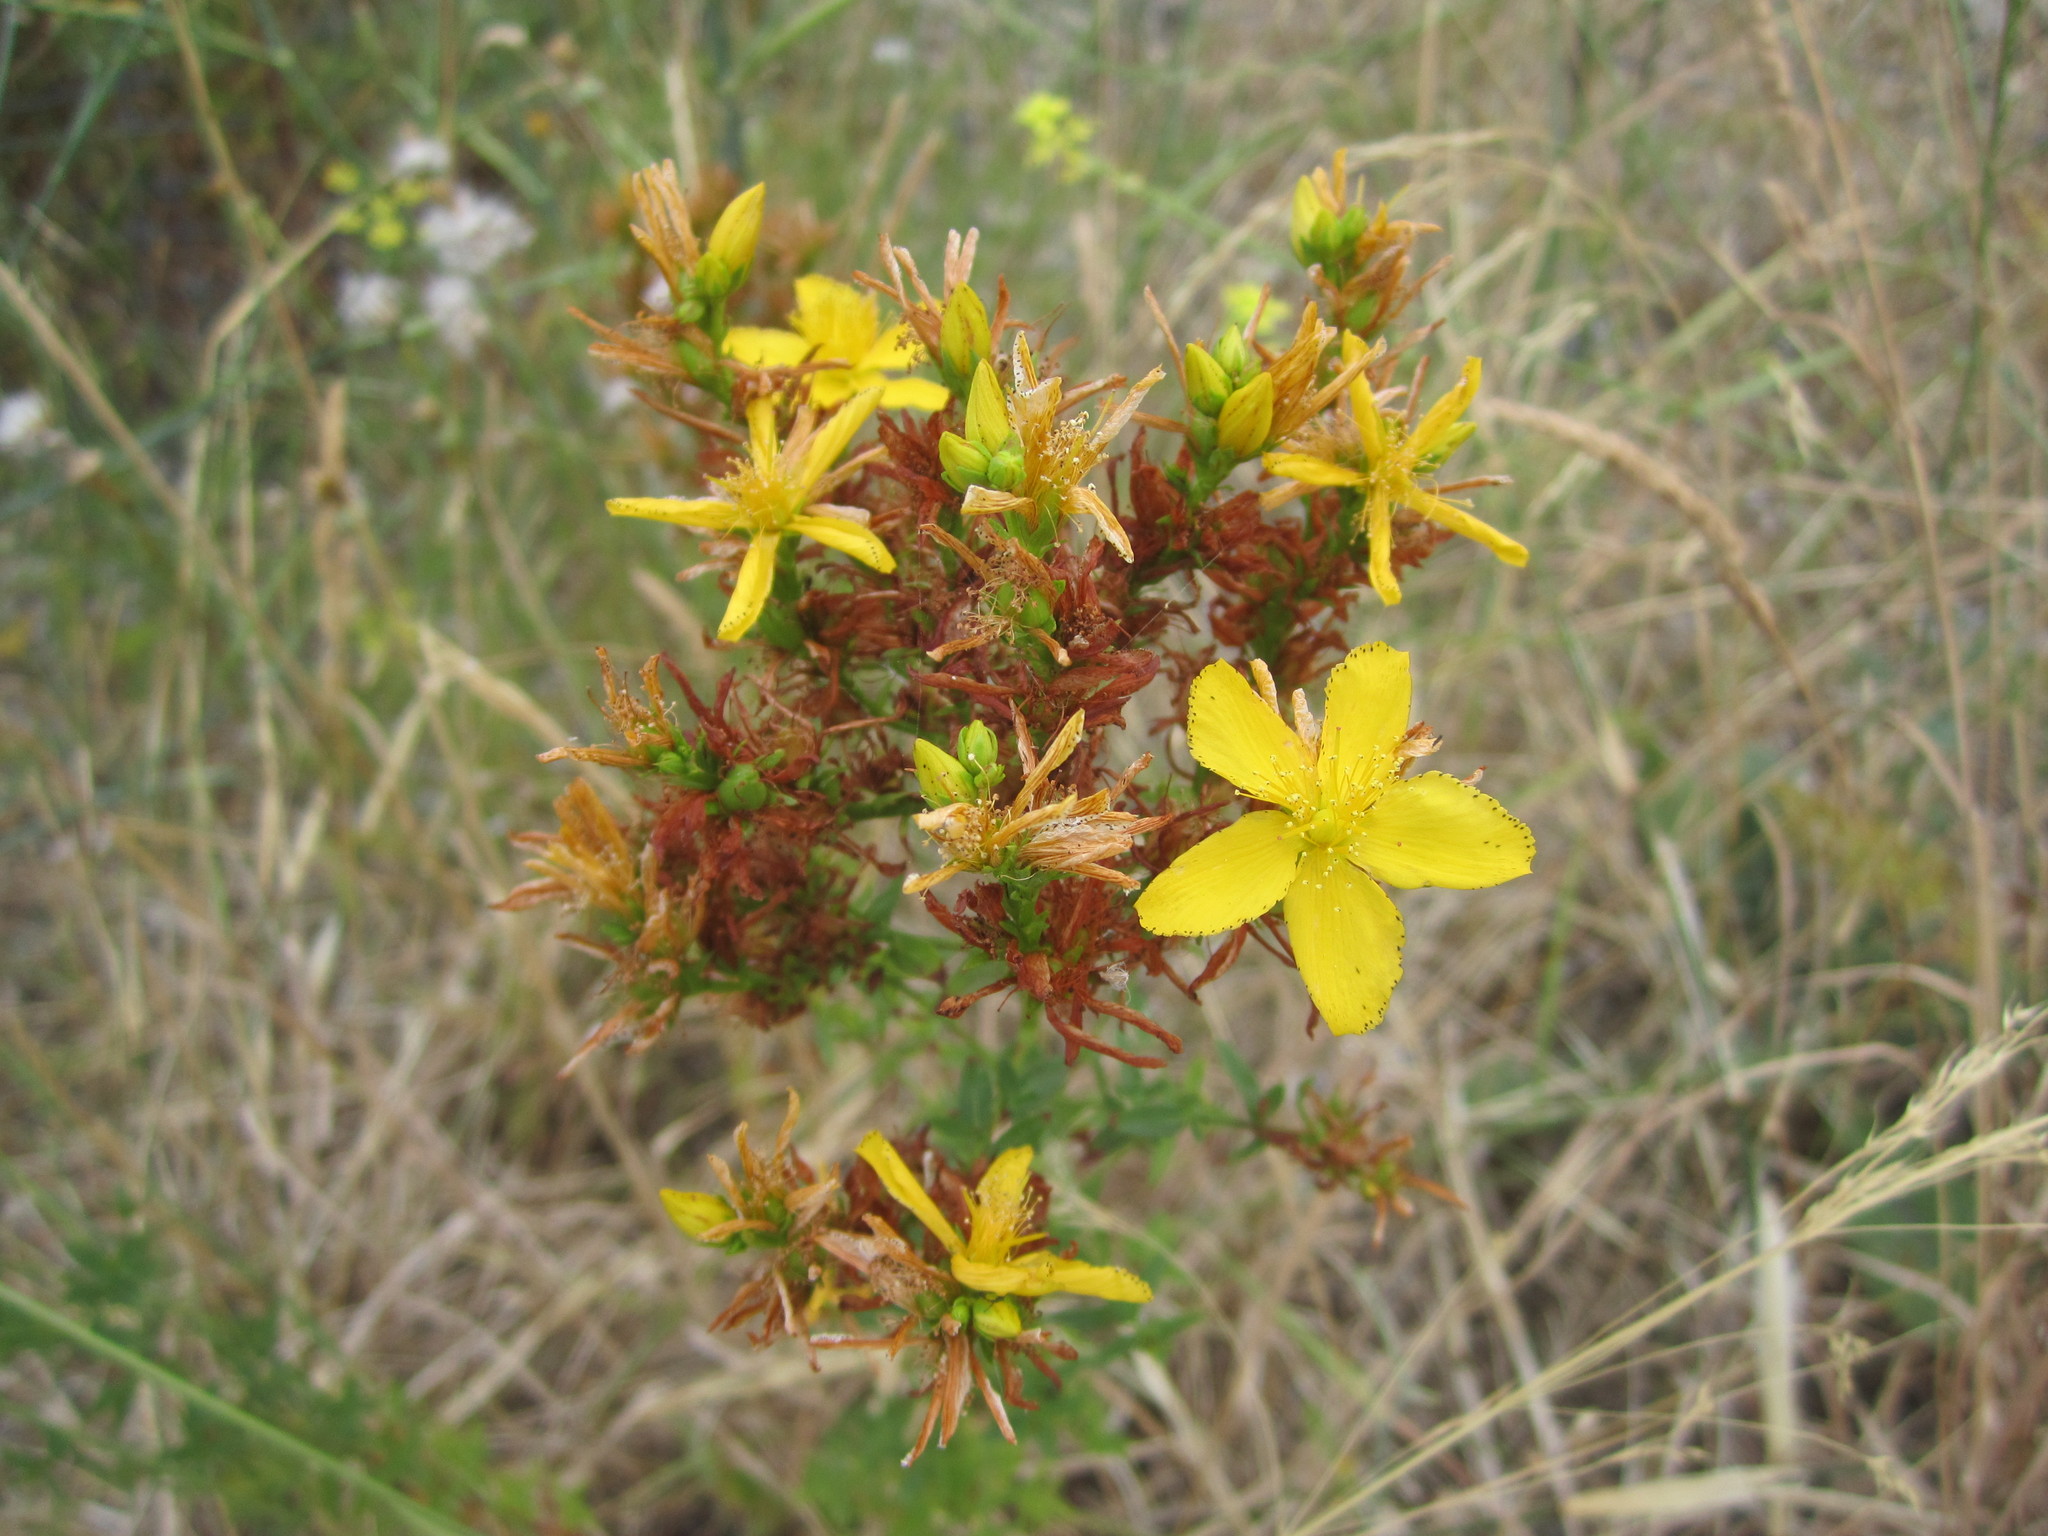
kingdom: Plantae
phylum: Tracheophyta
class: Magnoliopsida
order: Malpighiales
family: Hypericaceae
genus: Hypericum
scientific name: Hypericum perforatum
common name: Common st. johnswort
